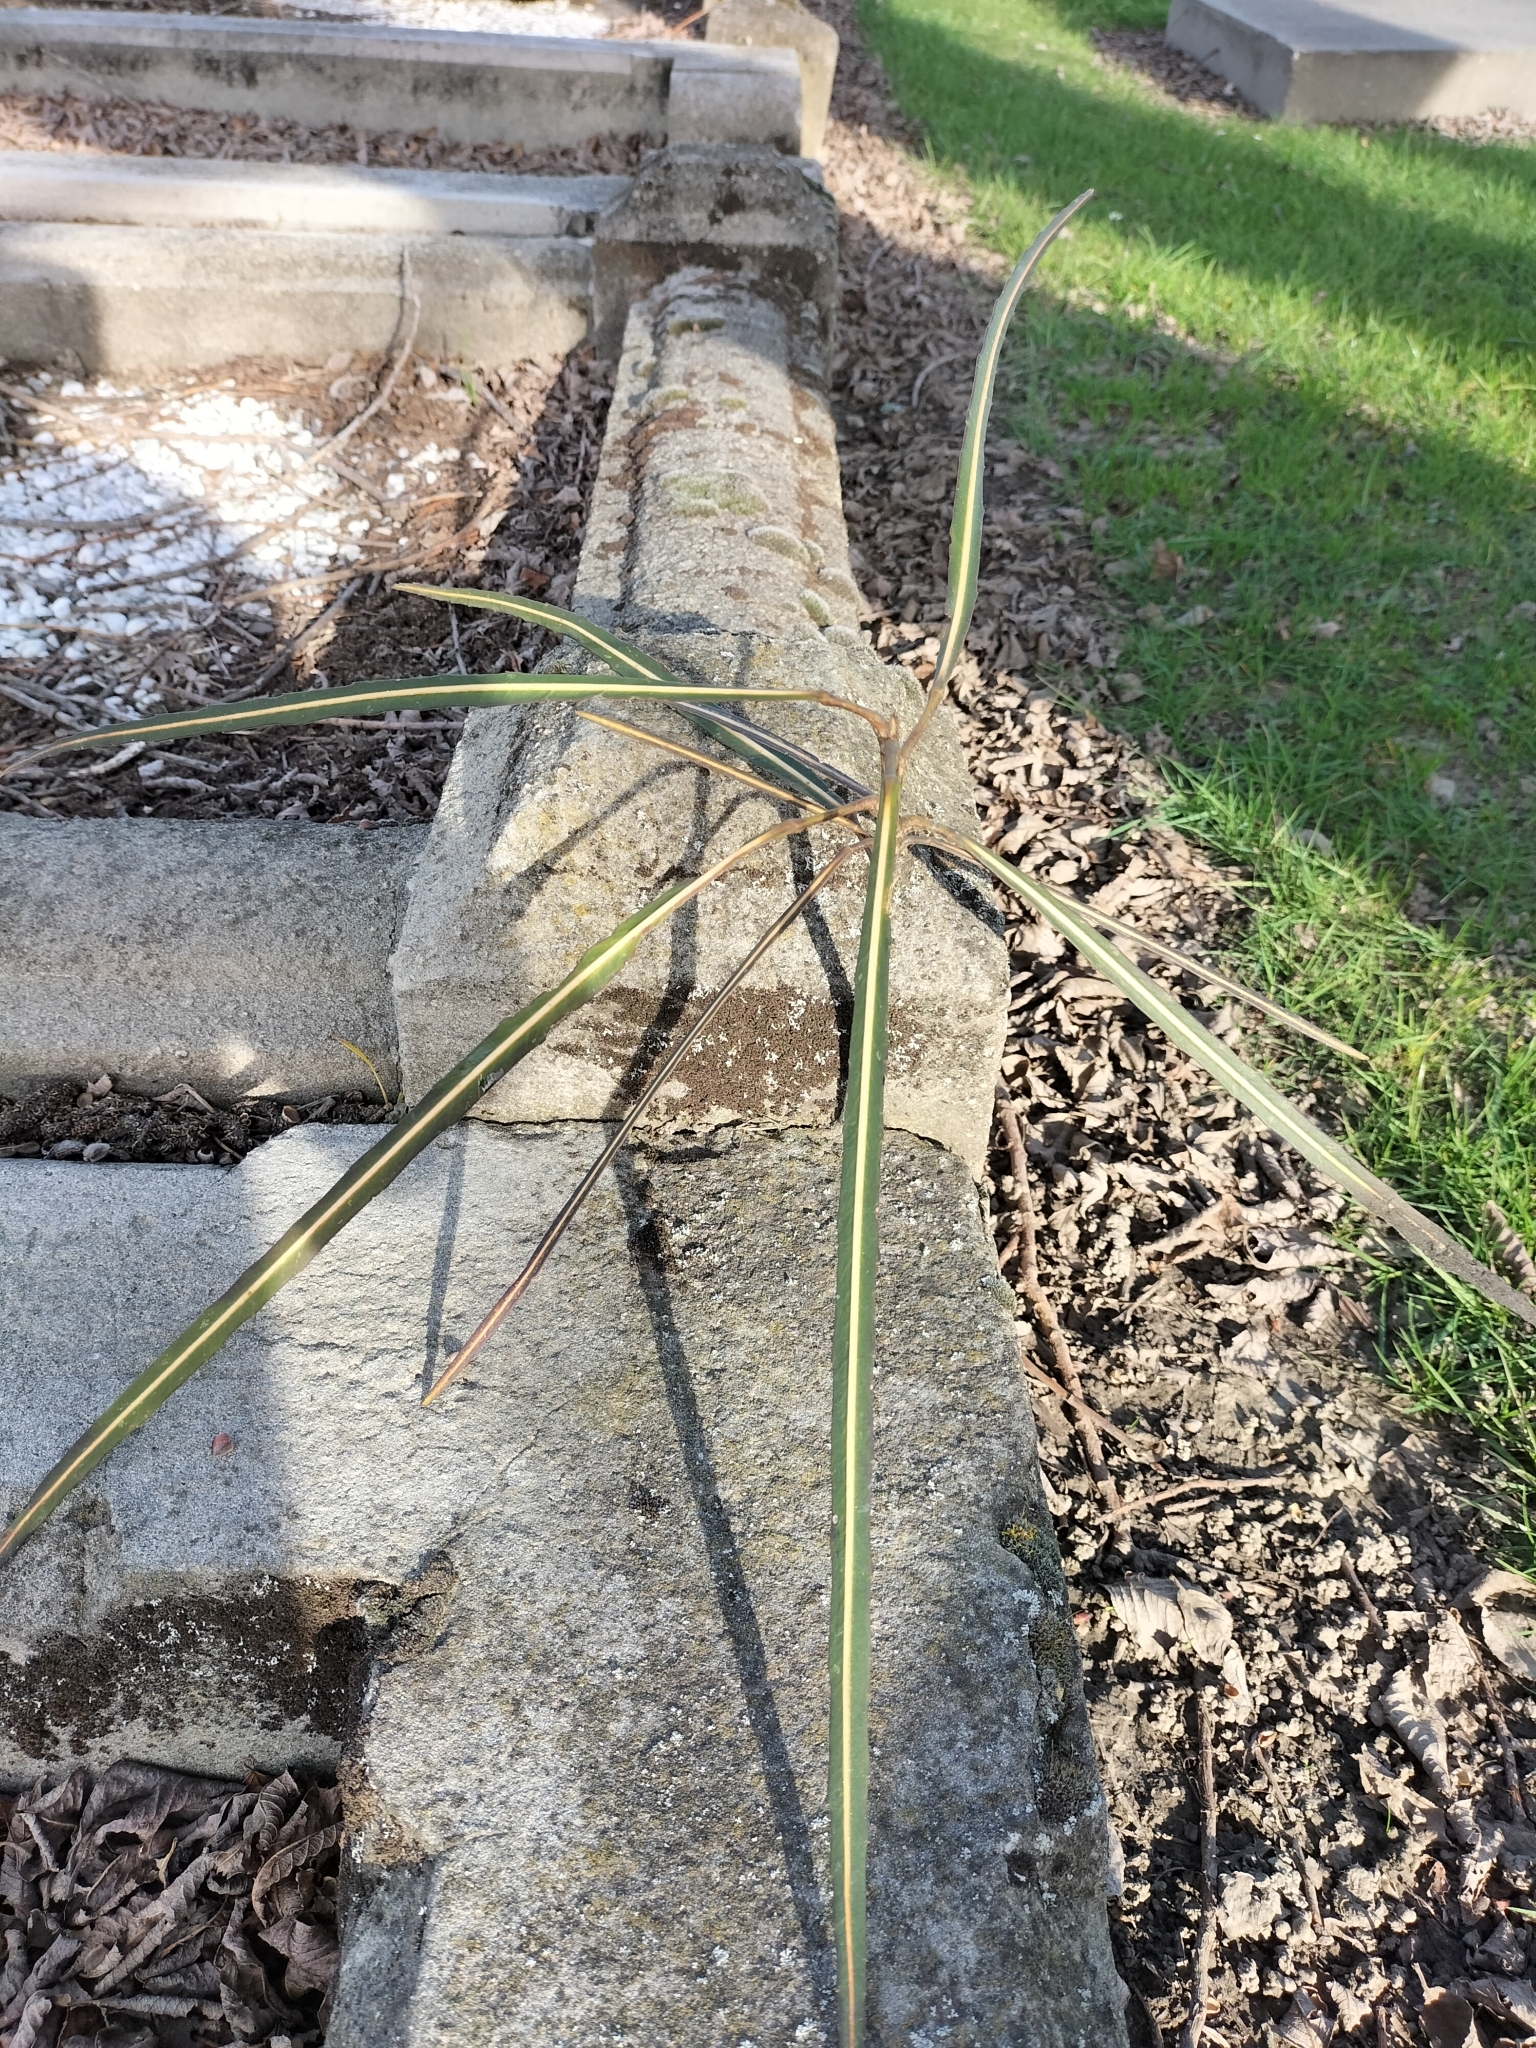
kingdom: Plantae
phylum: Tracheophyta
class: Magnoliopsida
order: Apiales
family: Araliaceae
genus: Pseudopanax
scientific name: Pseudopanax crassifolius
